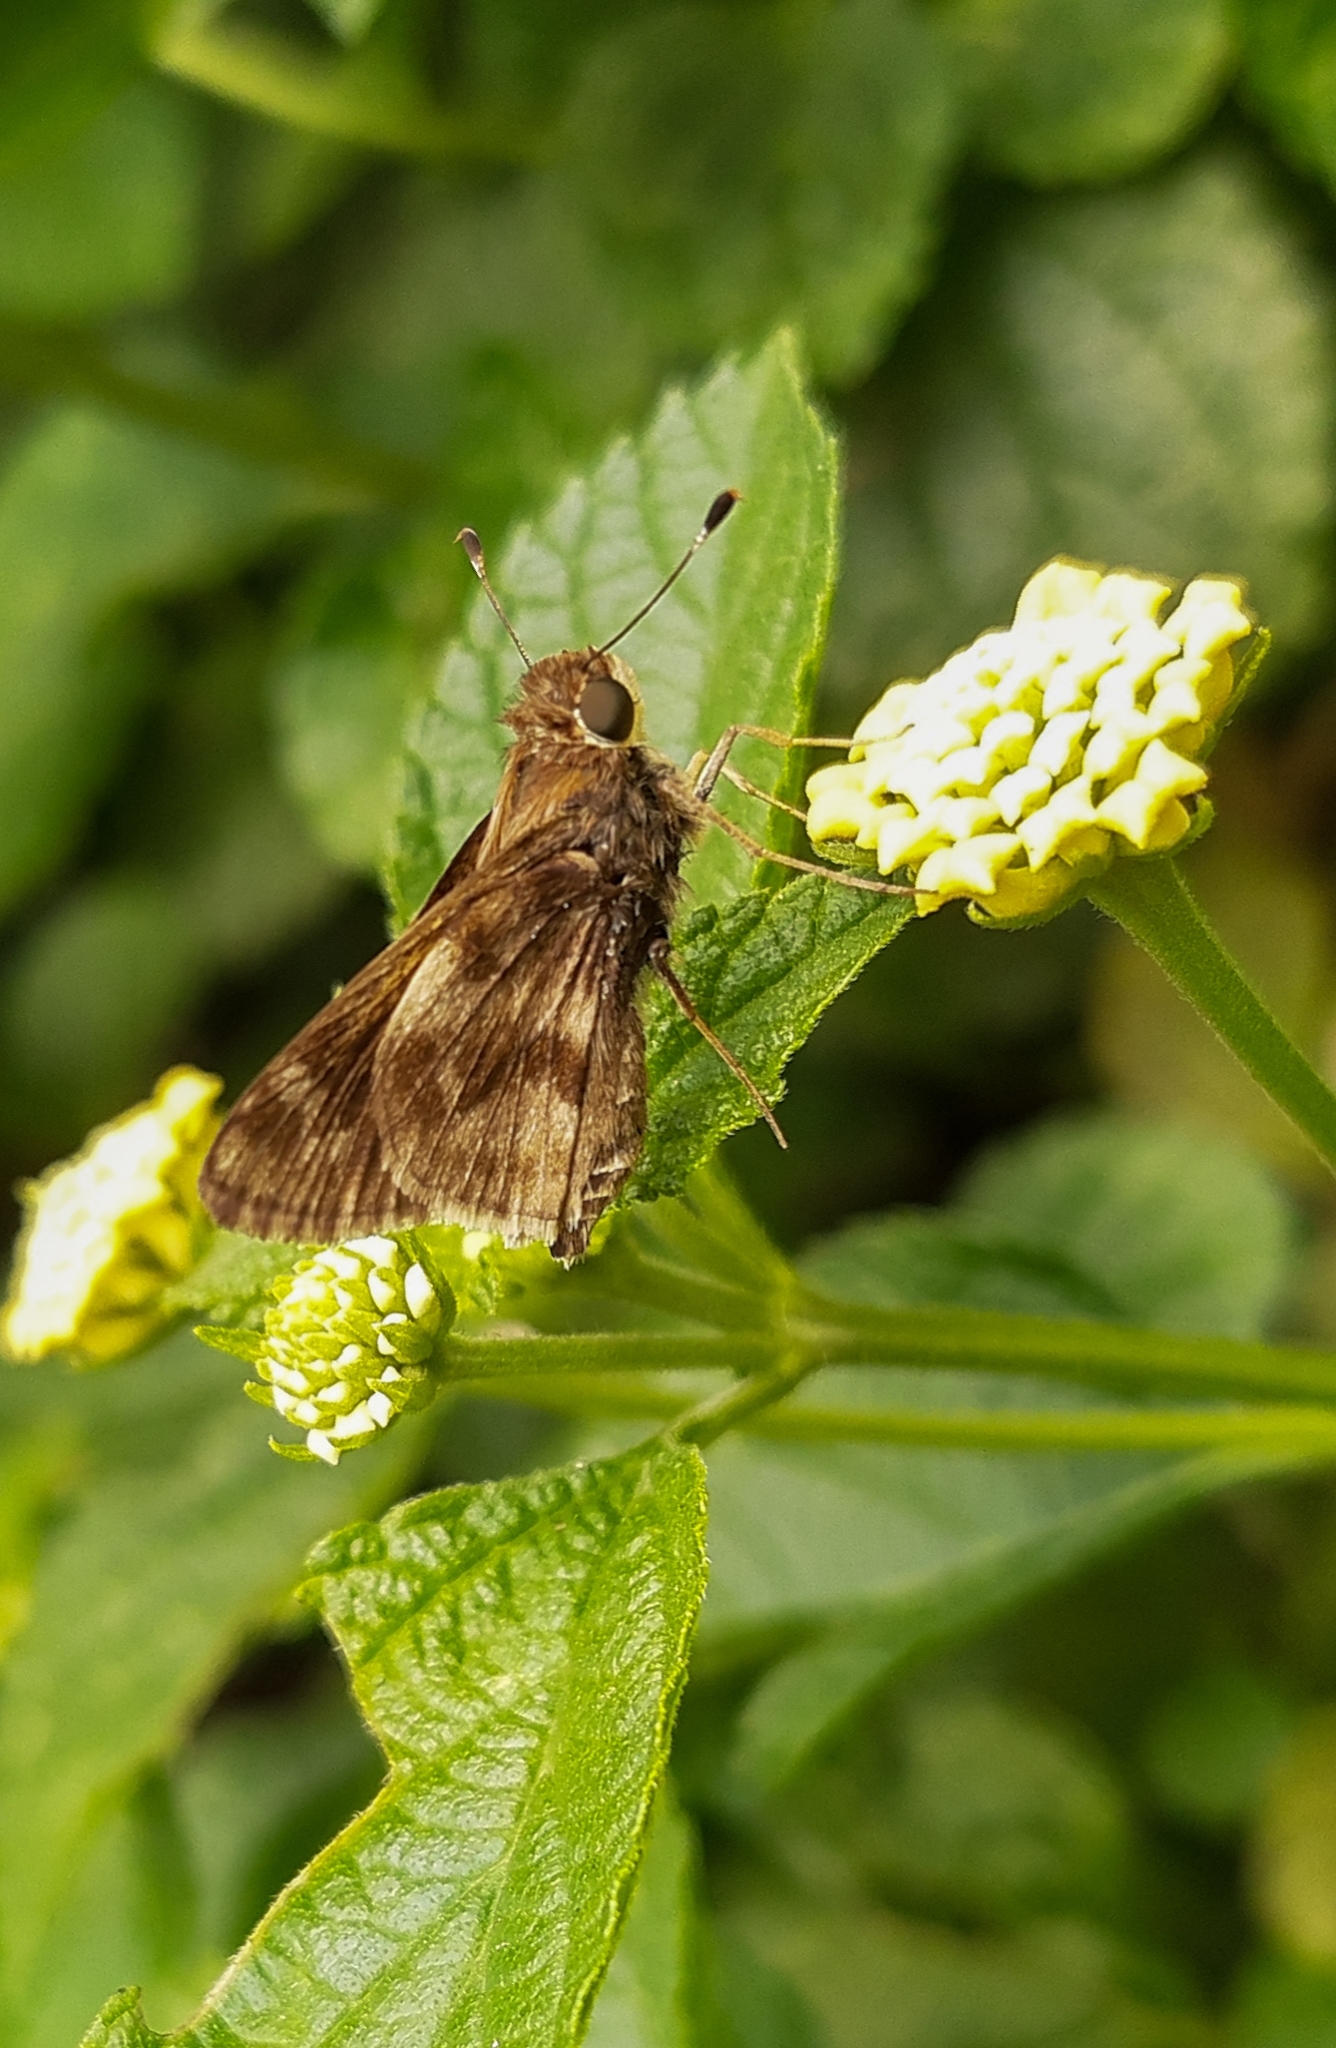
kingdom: Animalia
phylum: Arthropoda
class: Insecta
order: Lepidoptera
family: Hesperiidae
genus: Pompeius
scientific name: Pompeius pompeius
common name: Pompeius skipper
